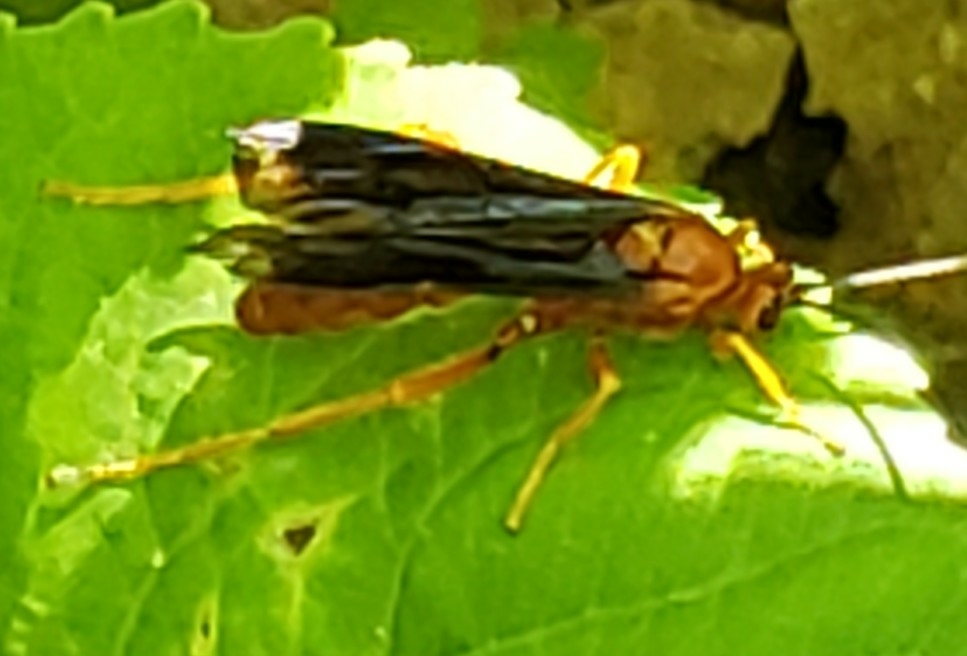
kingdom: Animalia
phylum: Arthropoda
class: Insecta
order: Hymenoptera
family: Ichneumonidae
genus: Trogus
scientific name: Trogus vulpinus
